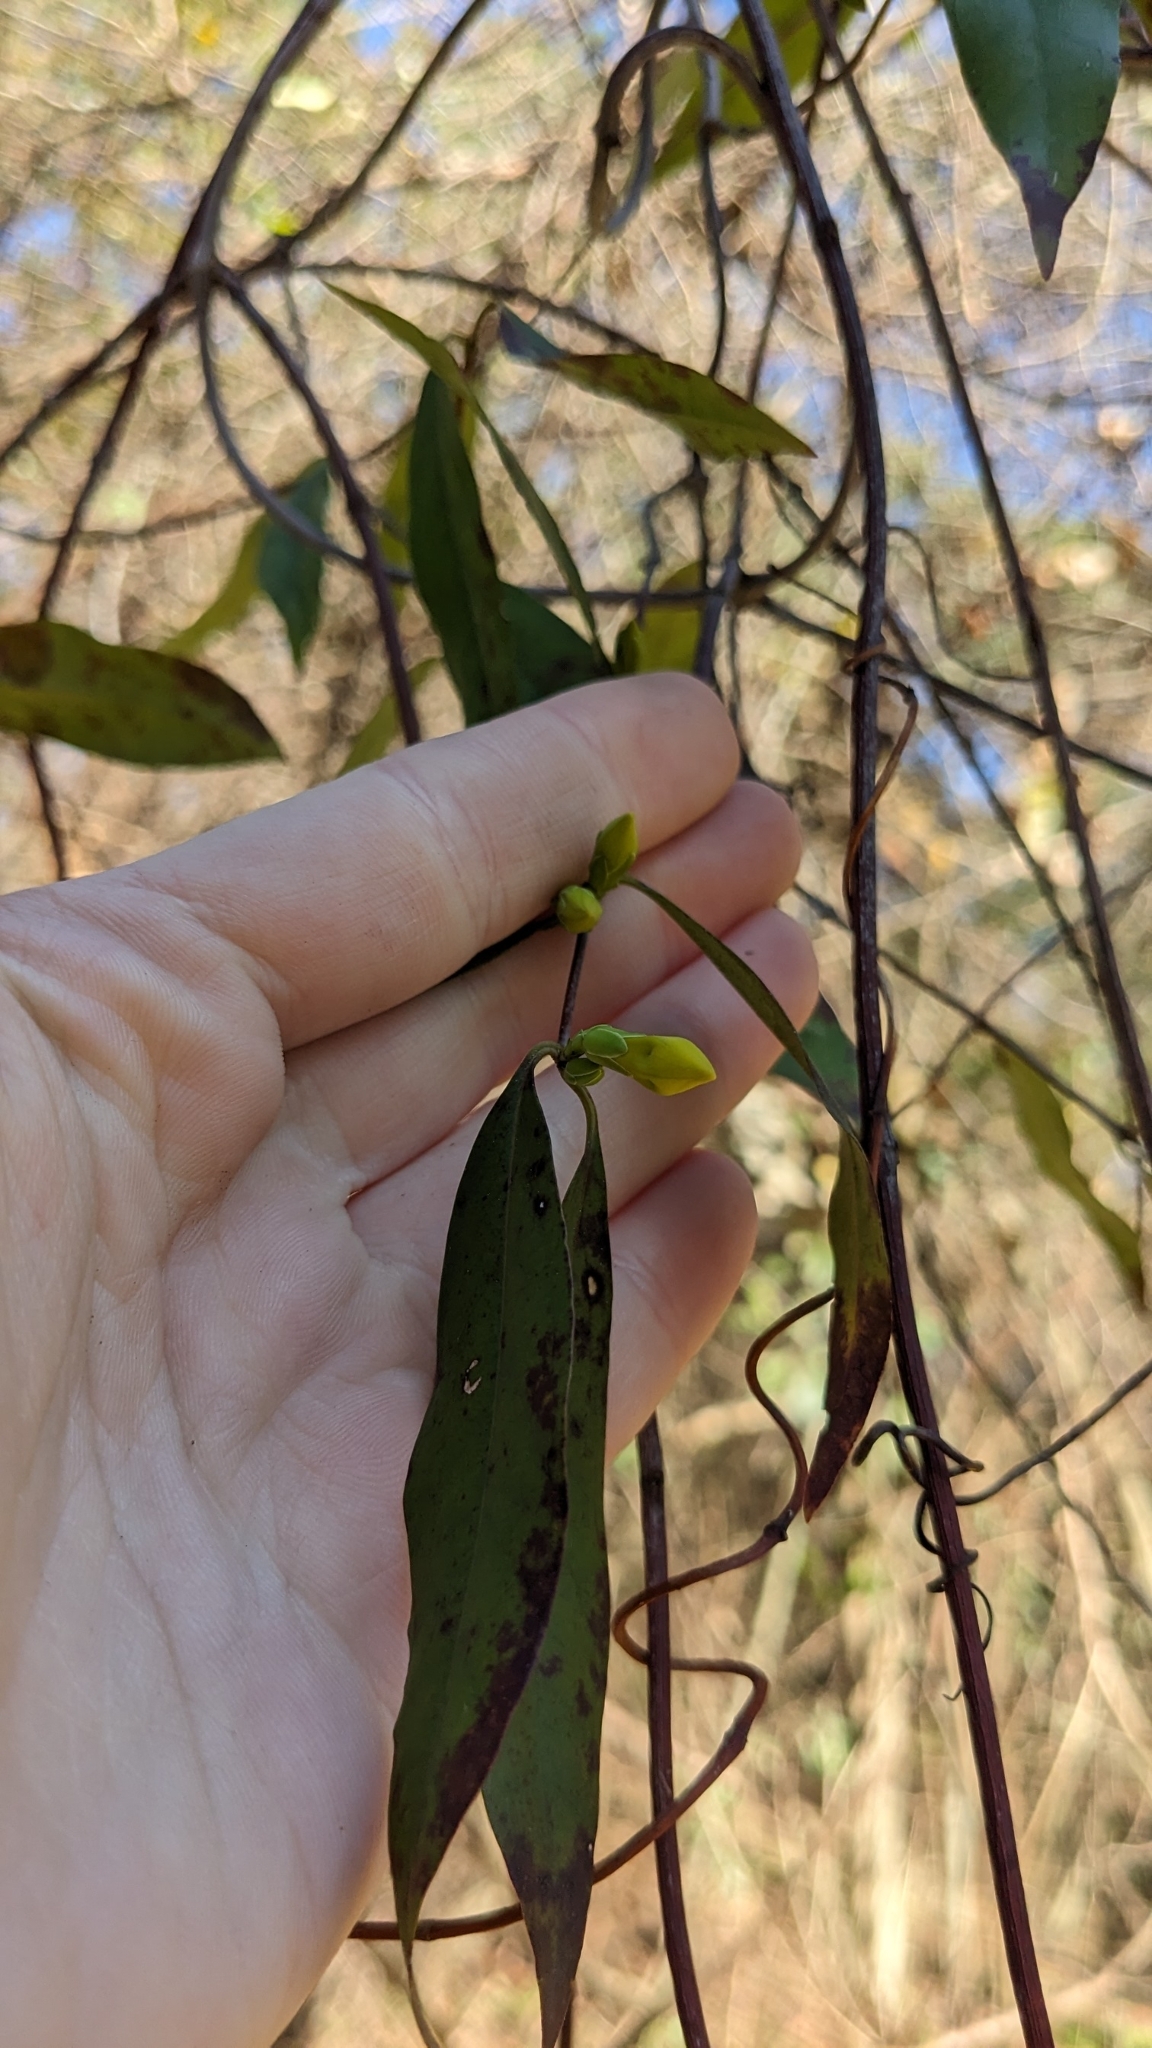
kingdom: Plantae
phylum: Tracheophyta
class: Magnoliopsida
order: Gentianales
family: Gelsemiaceae
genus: Gelsemium
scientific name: Gelsemium sempervirens
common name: Carolina-jasmine
